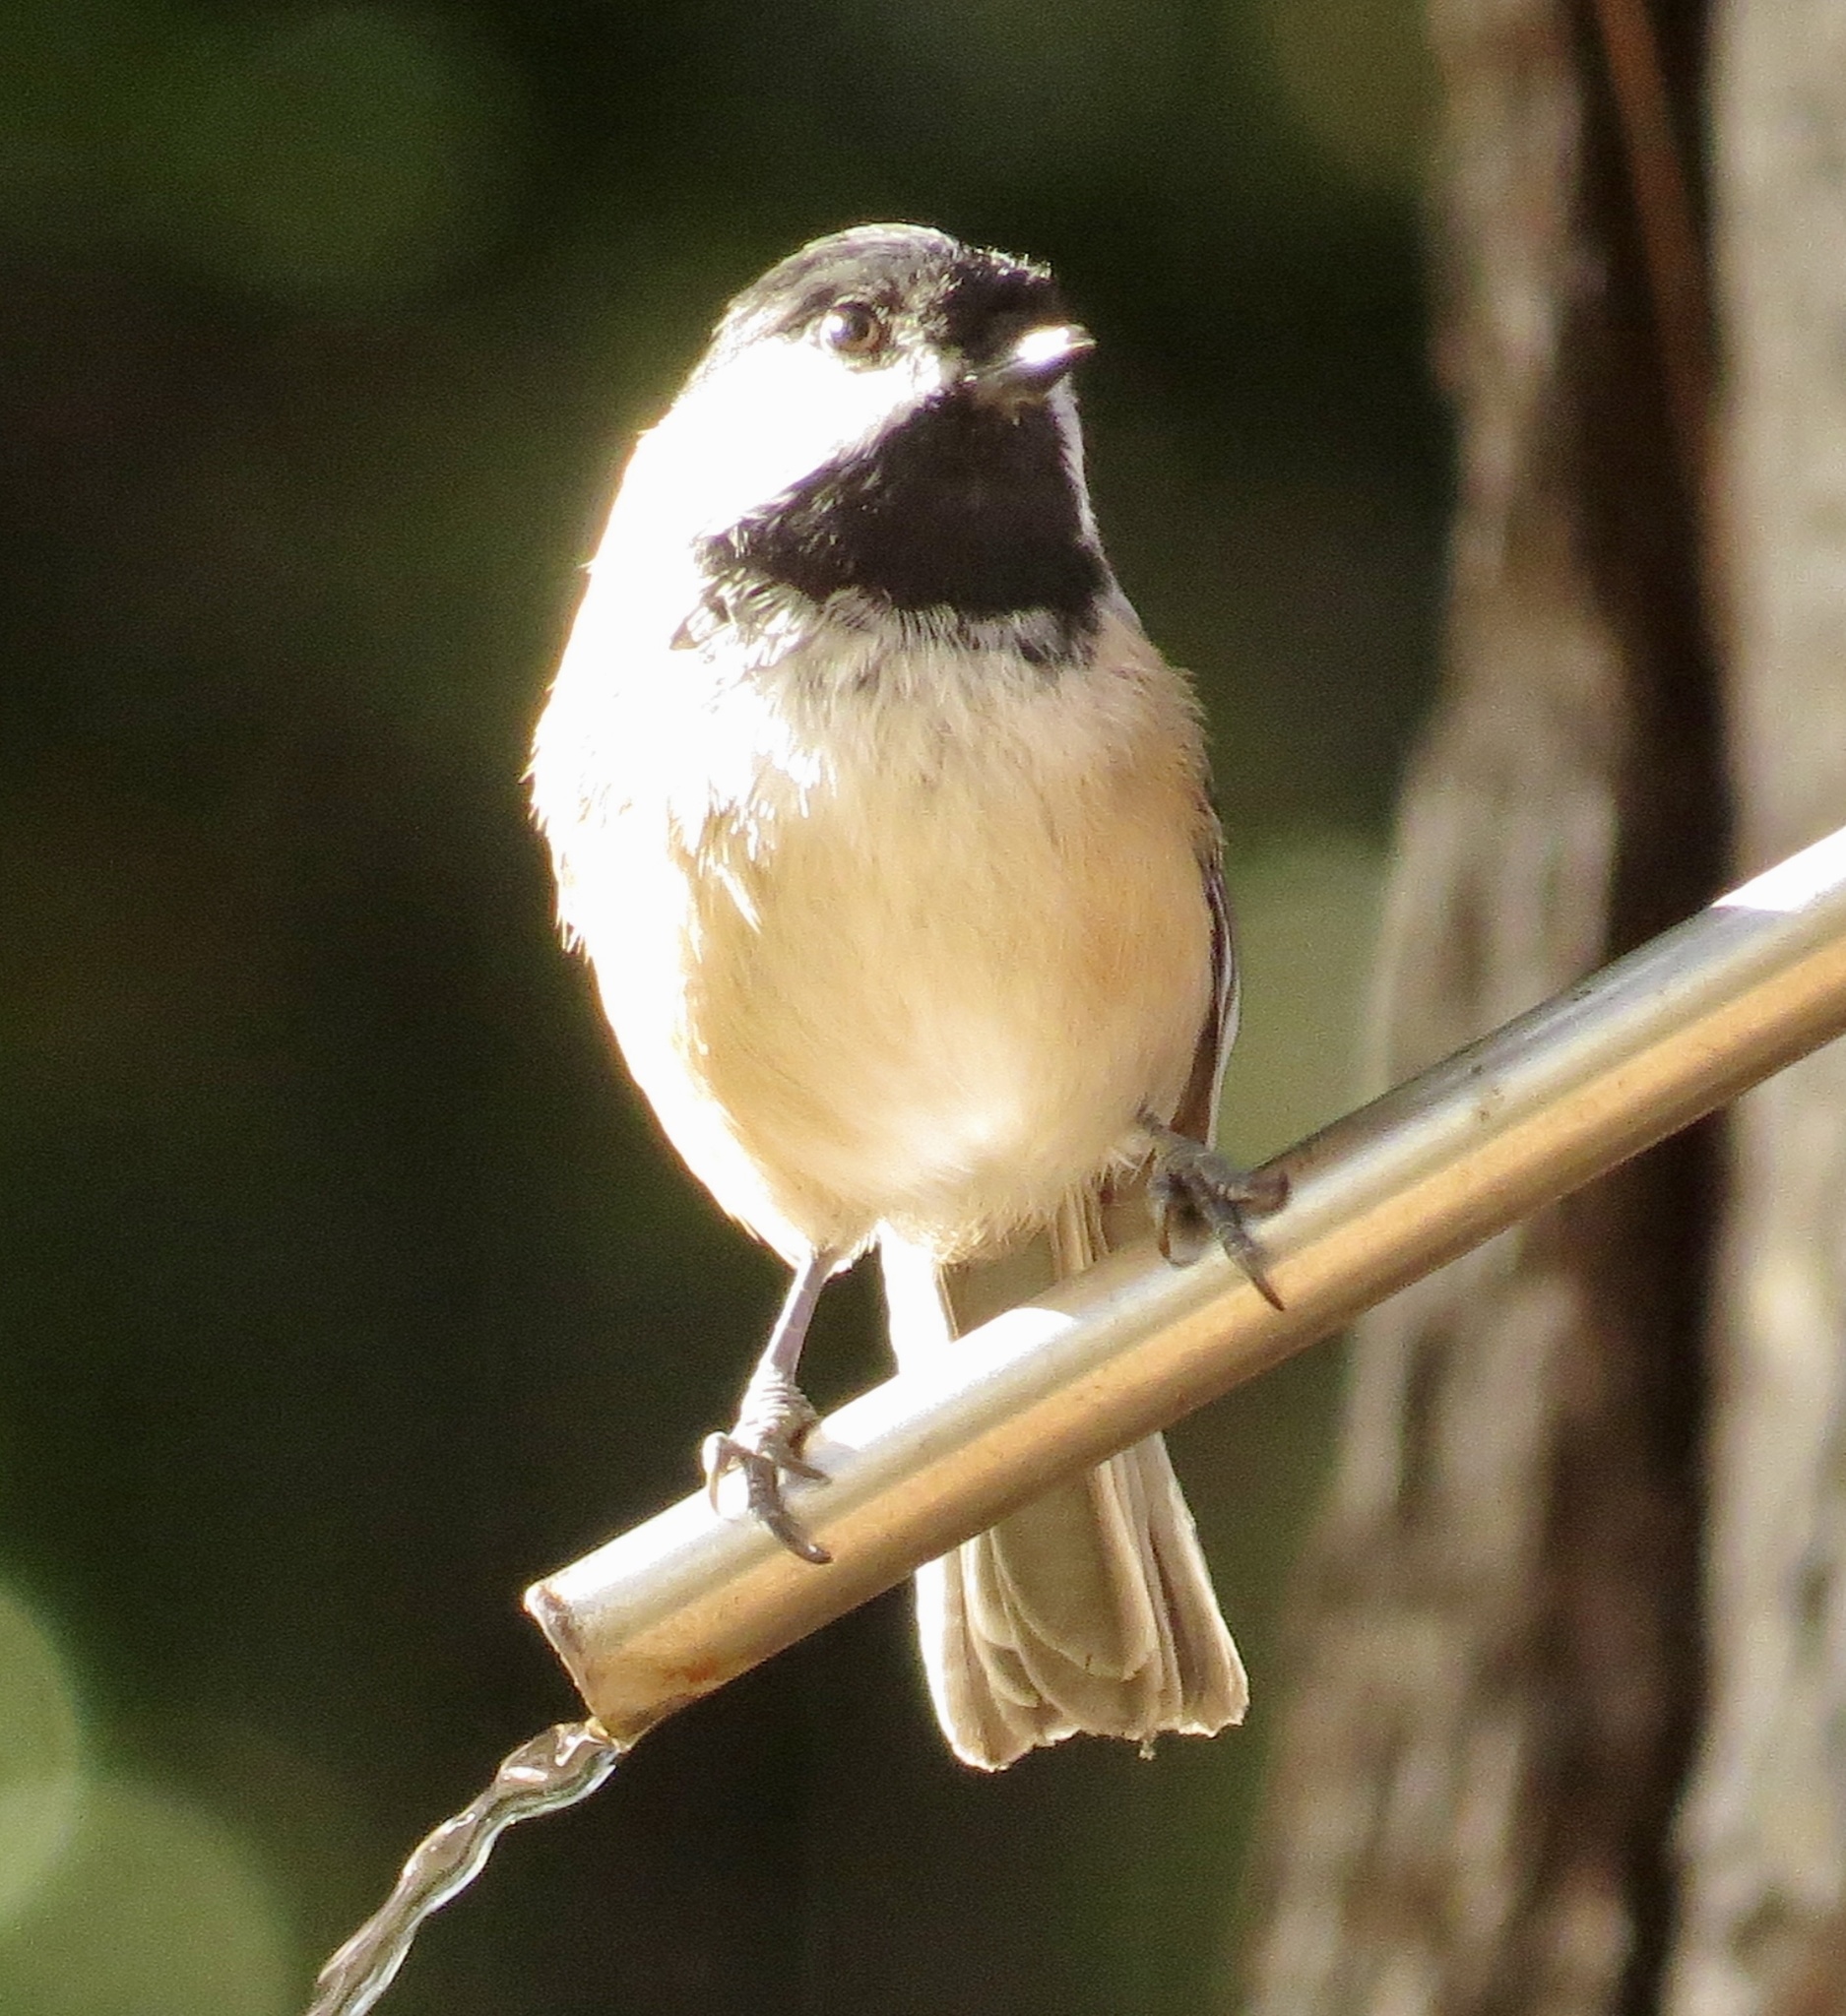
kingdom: Animalia
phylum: Chordata
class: Aves
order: Passeriformes
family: Paridae
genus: Poecile
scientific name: Poecile atricapillus
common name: Black-capped chickadee
